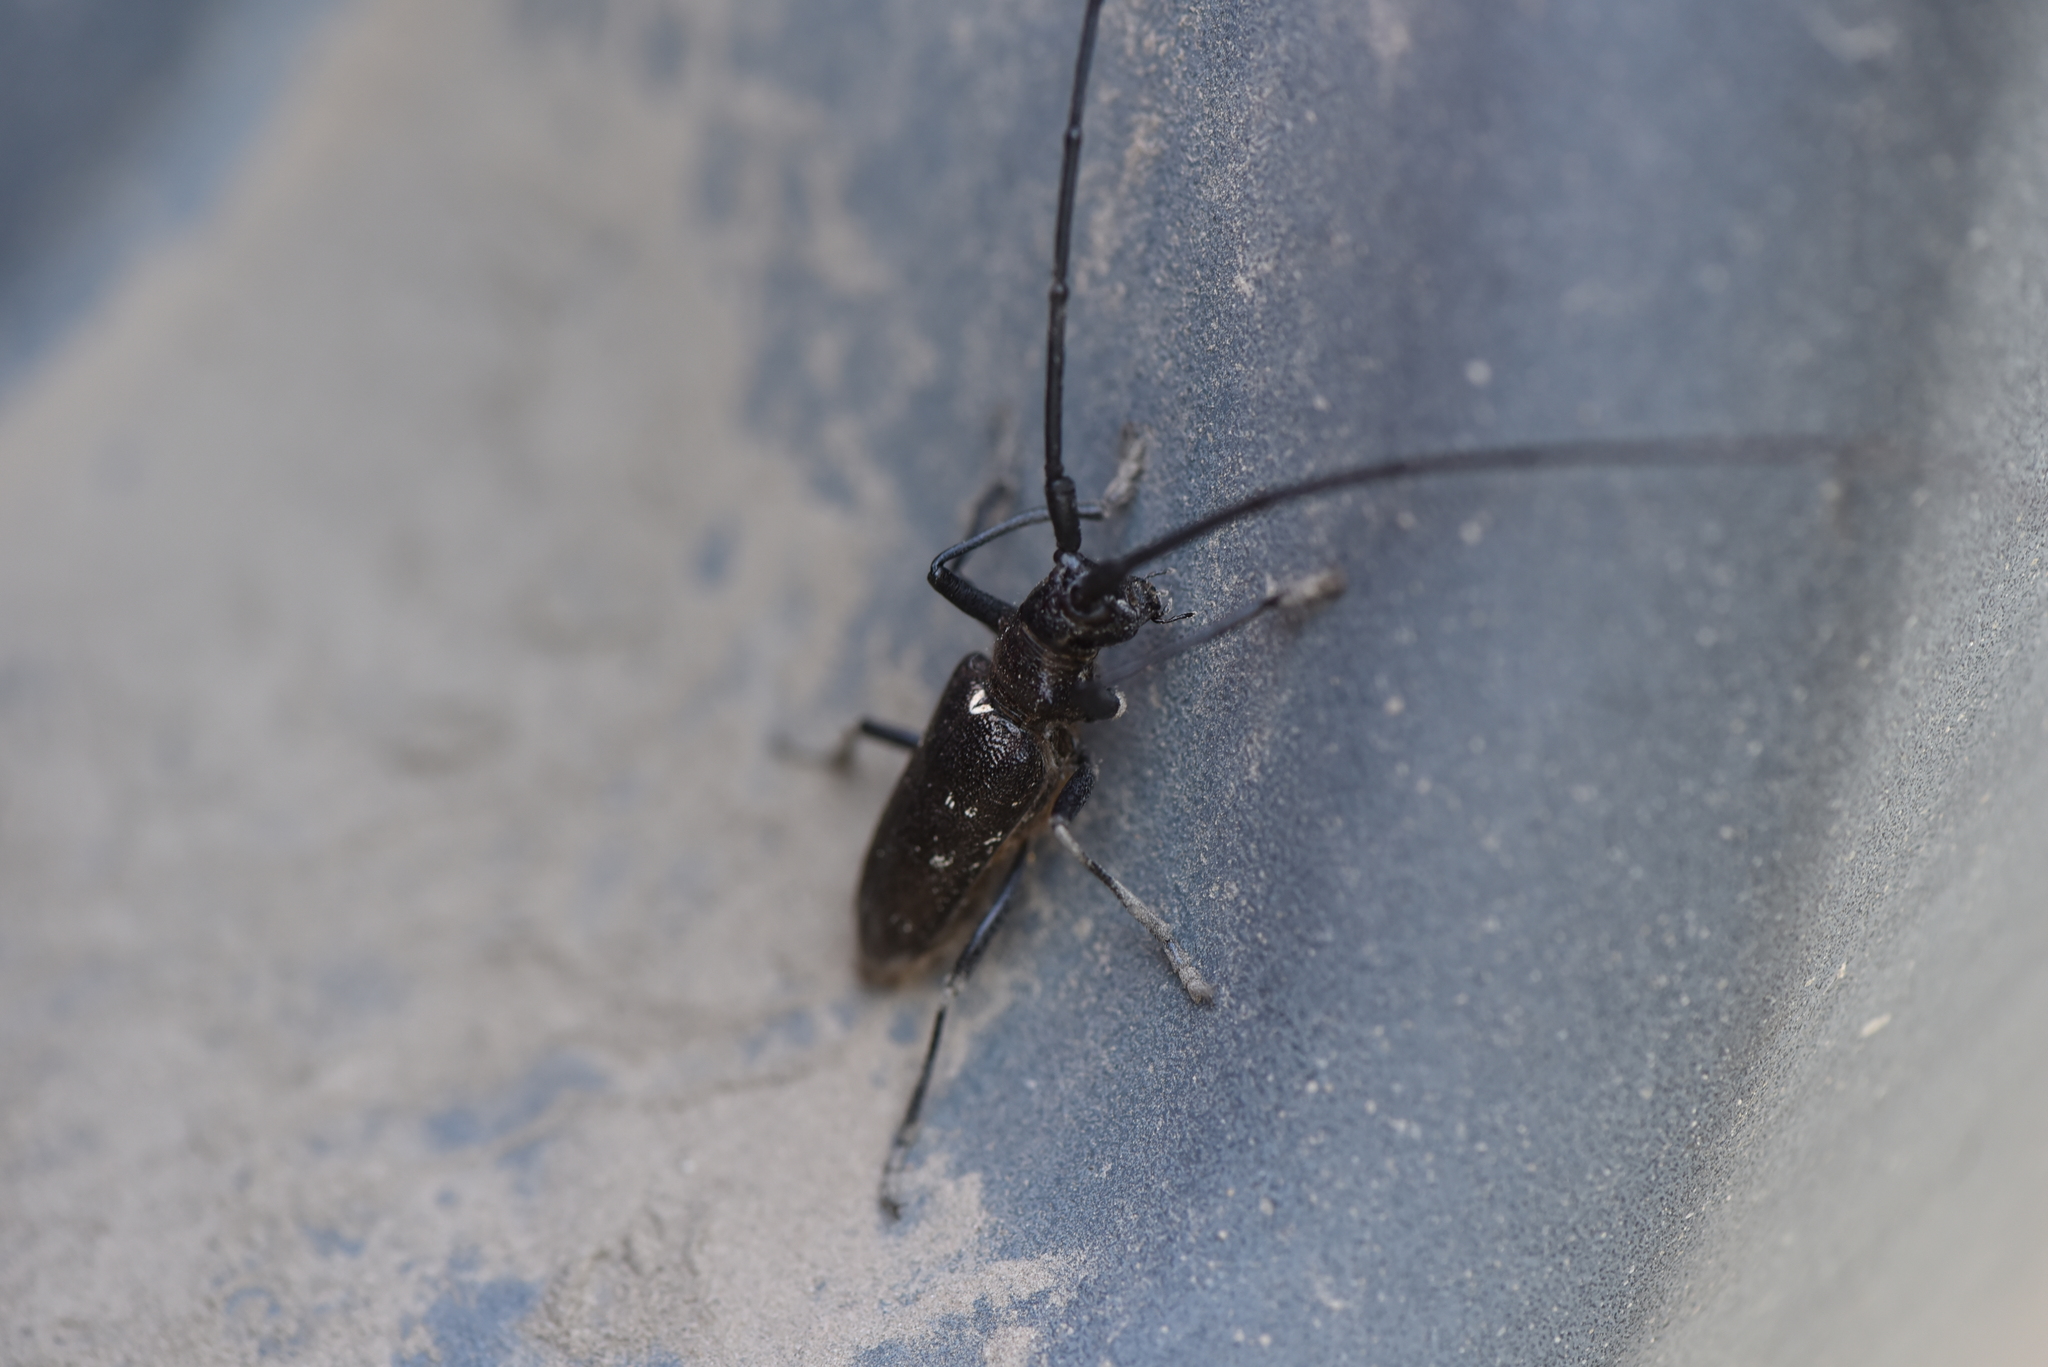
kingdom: Animalia
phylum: Arthropoda
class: Insecta
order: Coleoptera
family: Cerambycidae
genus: Monochamus
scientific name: Monochamus scutellatus
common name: White-spotted sawyer beetle
